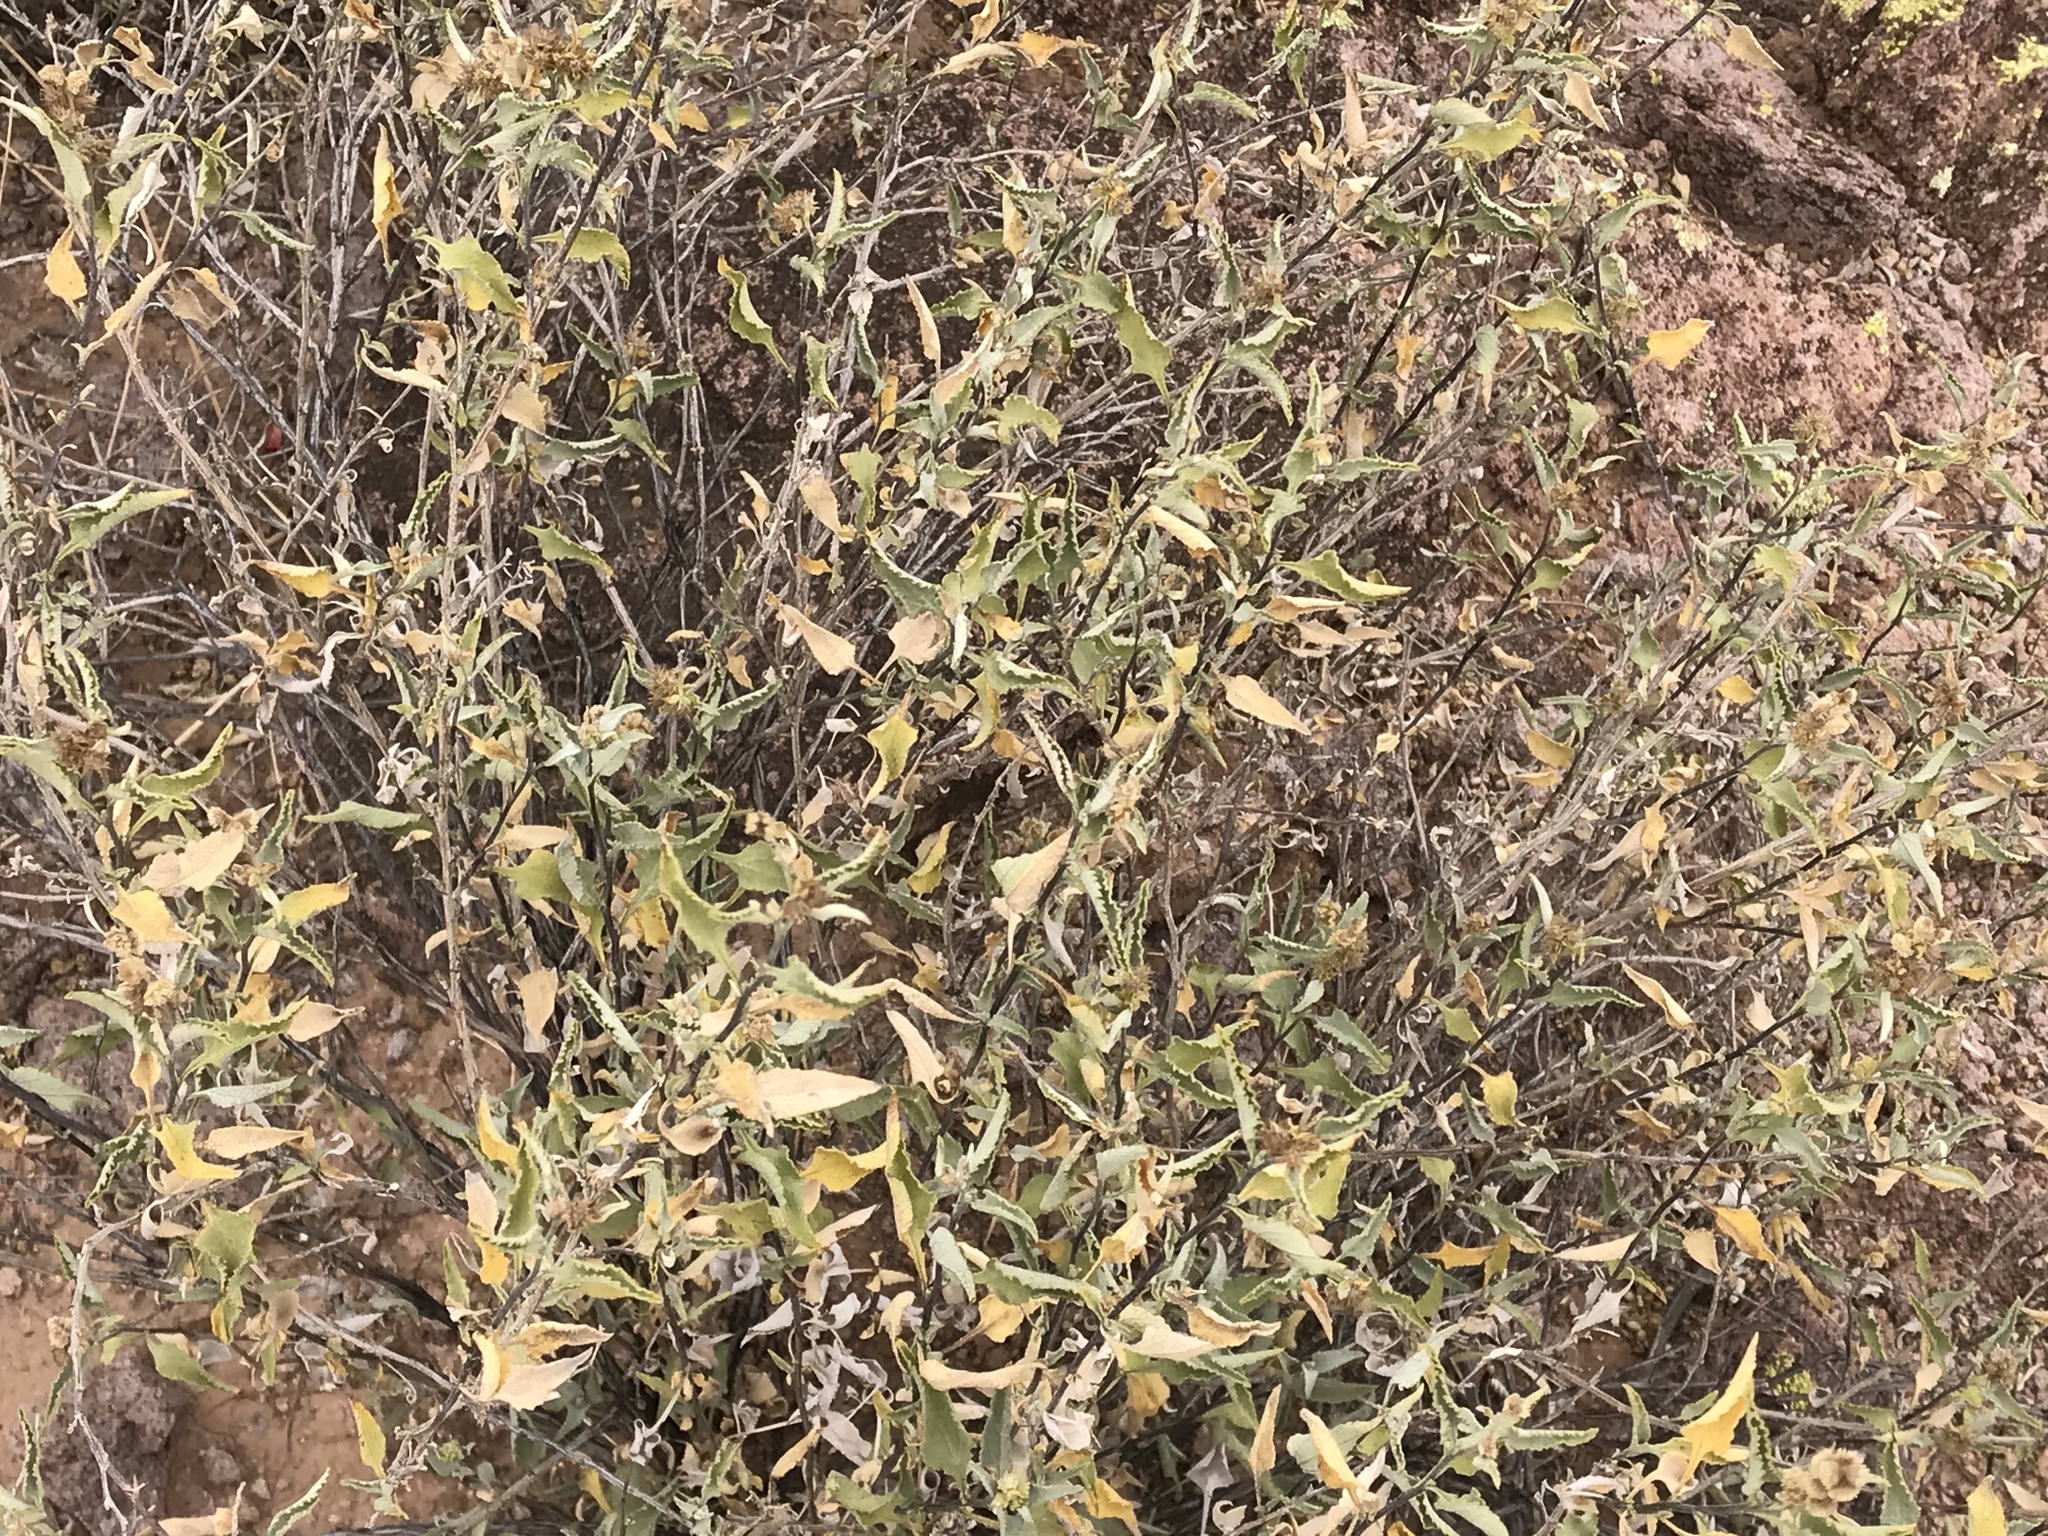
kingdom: Plantae
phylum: Tracheophyta
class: Magnoliopsida
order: Asterales
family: Asteraceae
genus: Ambrosia
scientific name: Ambrosia deltoidea
